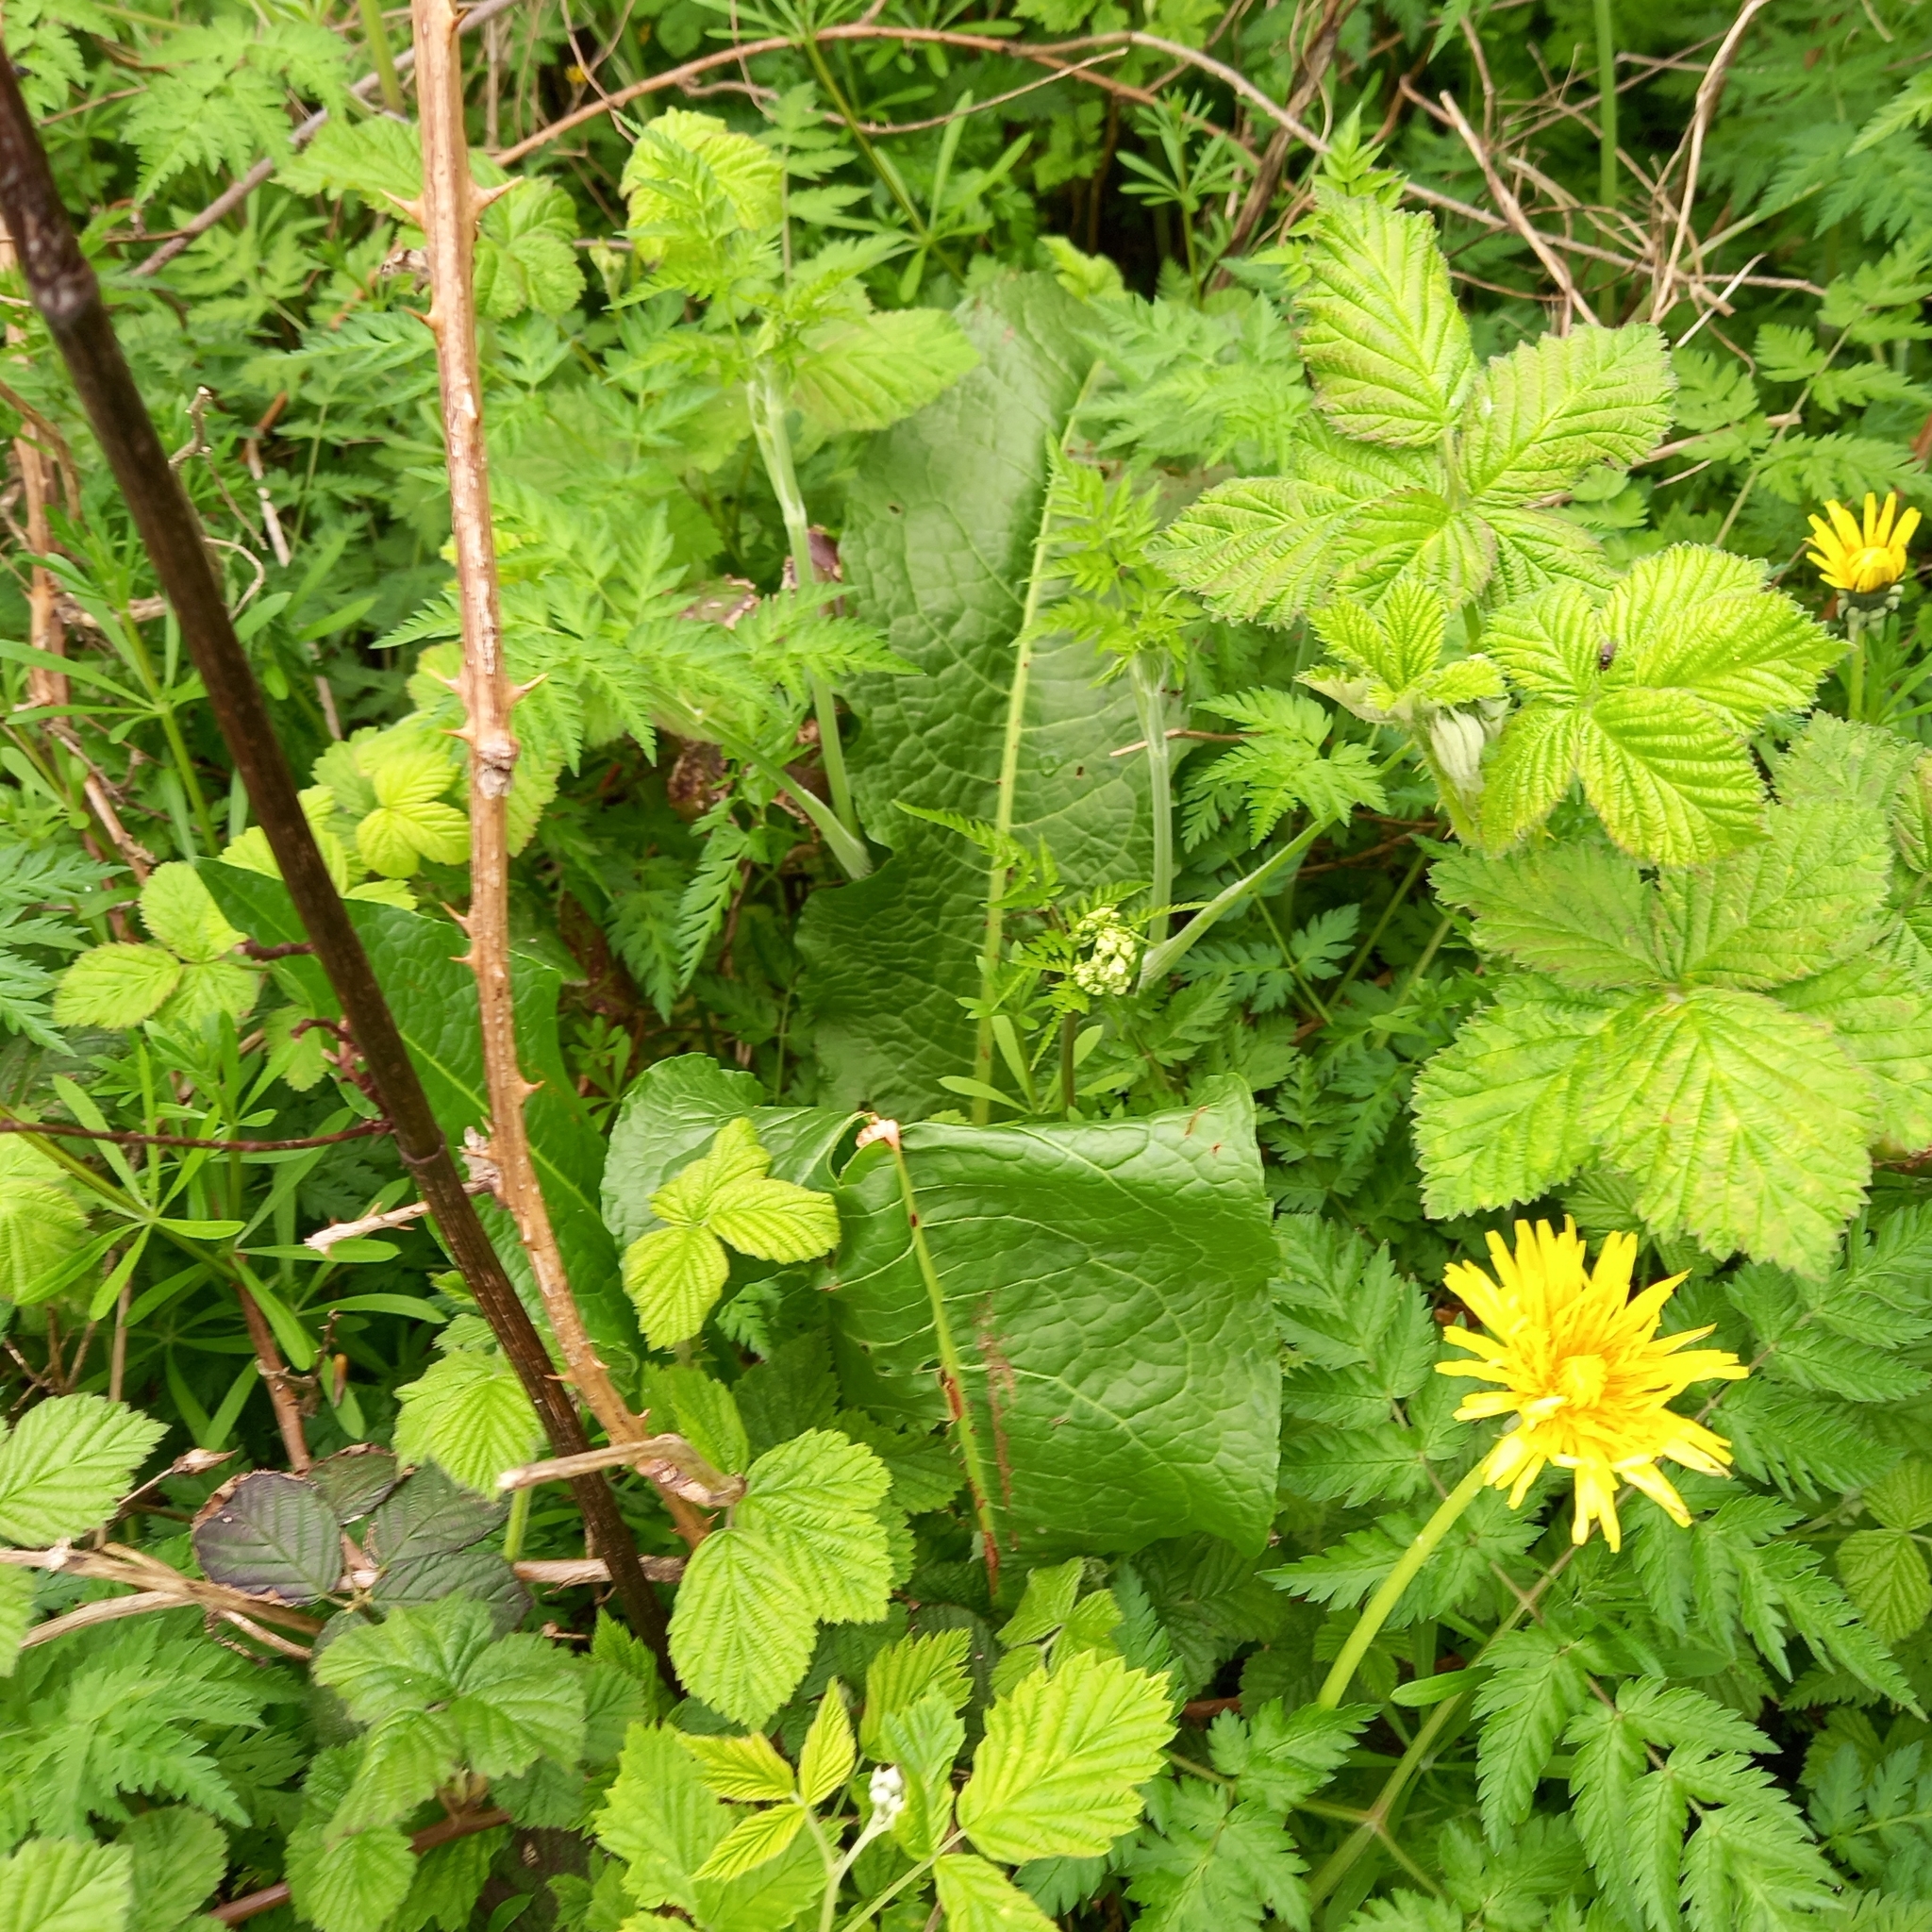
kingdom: Plantae
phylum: Tracheophyta
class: Magnoliopsida
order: Caryophyllales
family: Polygonaceae
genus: Rumex
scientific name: Rumex obtusifolius
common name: Bitter dock
